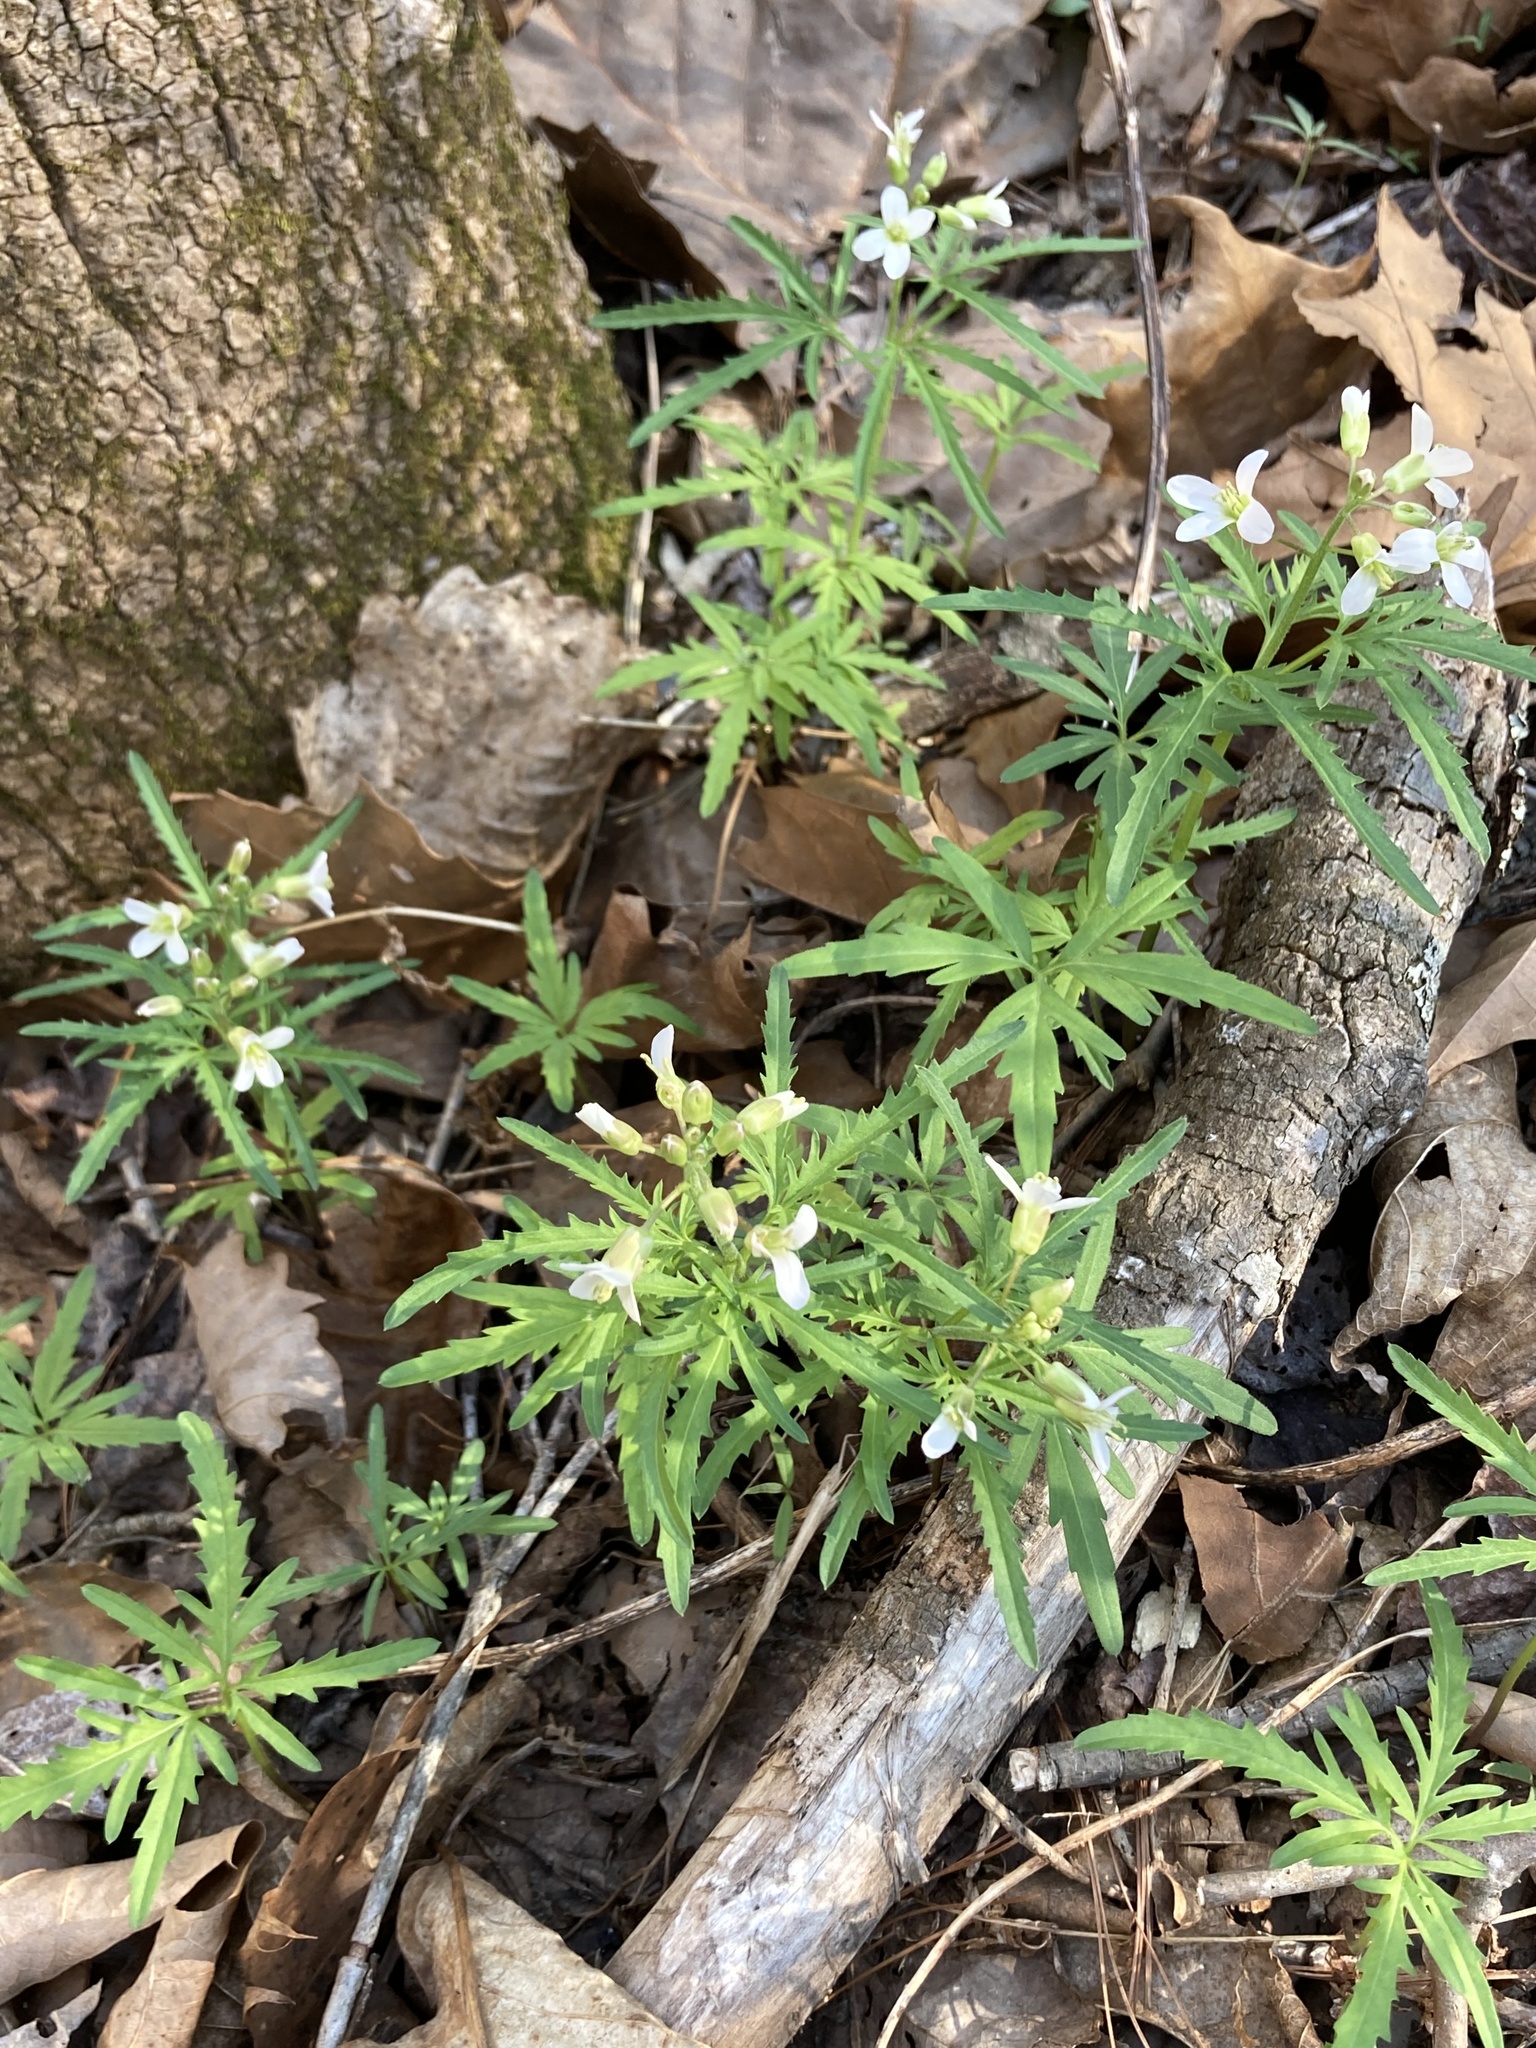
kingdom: Plantae
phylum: Tracheophyta
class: Magnoliopsida
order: Brassicales
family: Brassicaceae
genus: Cardamine
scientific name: Cardamine concatenata
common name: Cut-leaf toothcup
